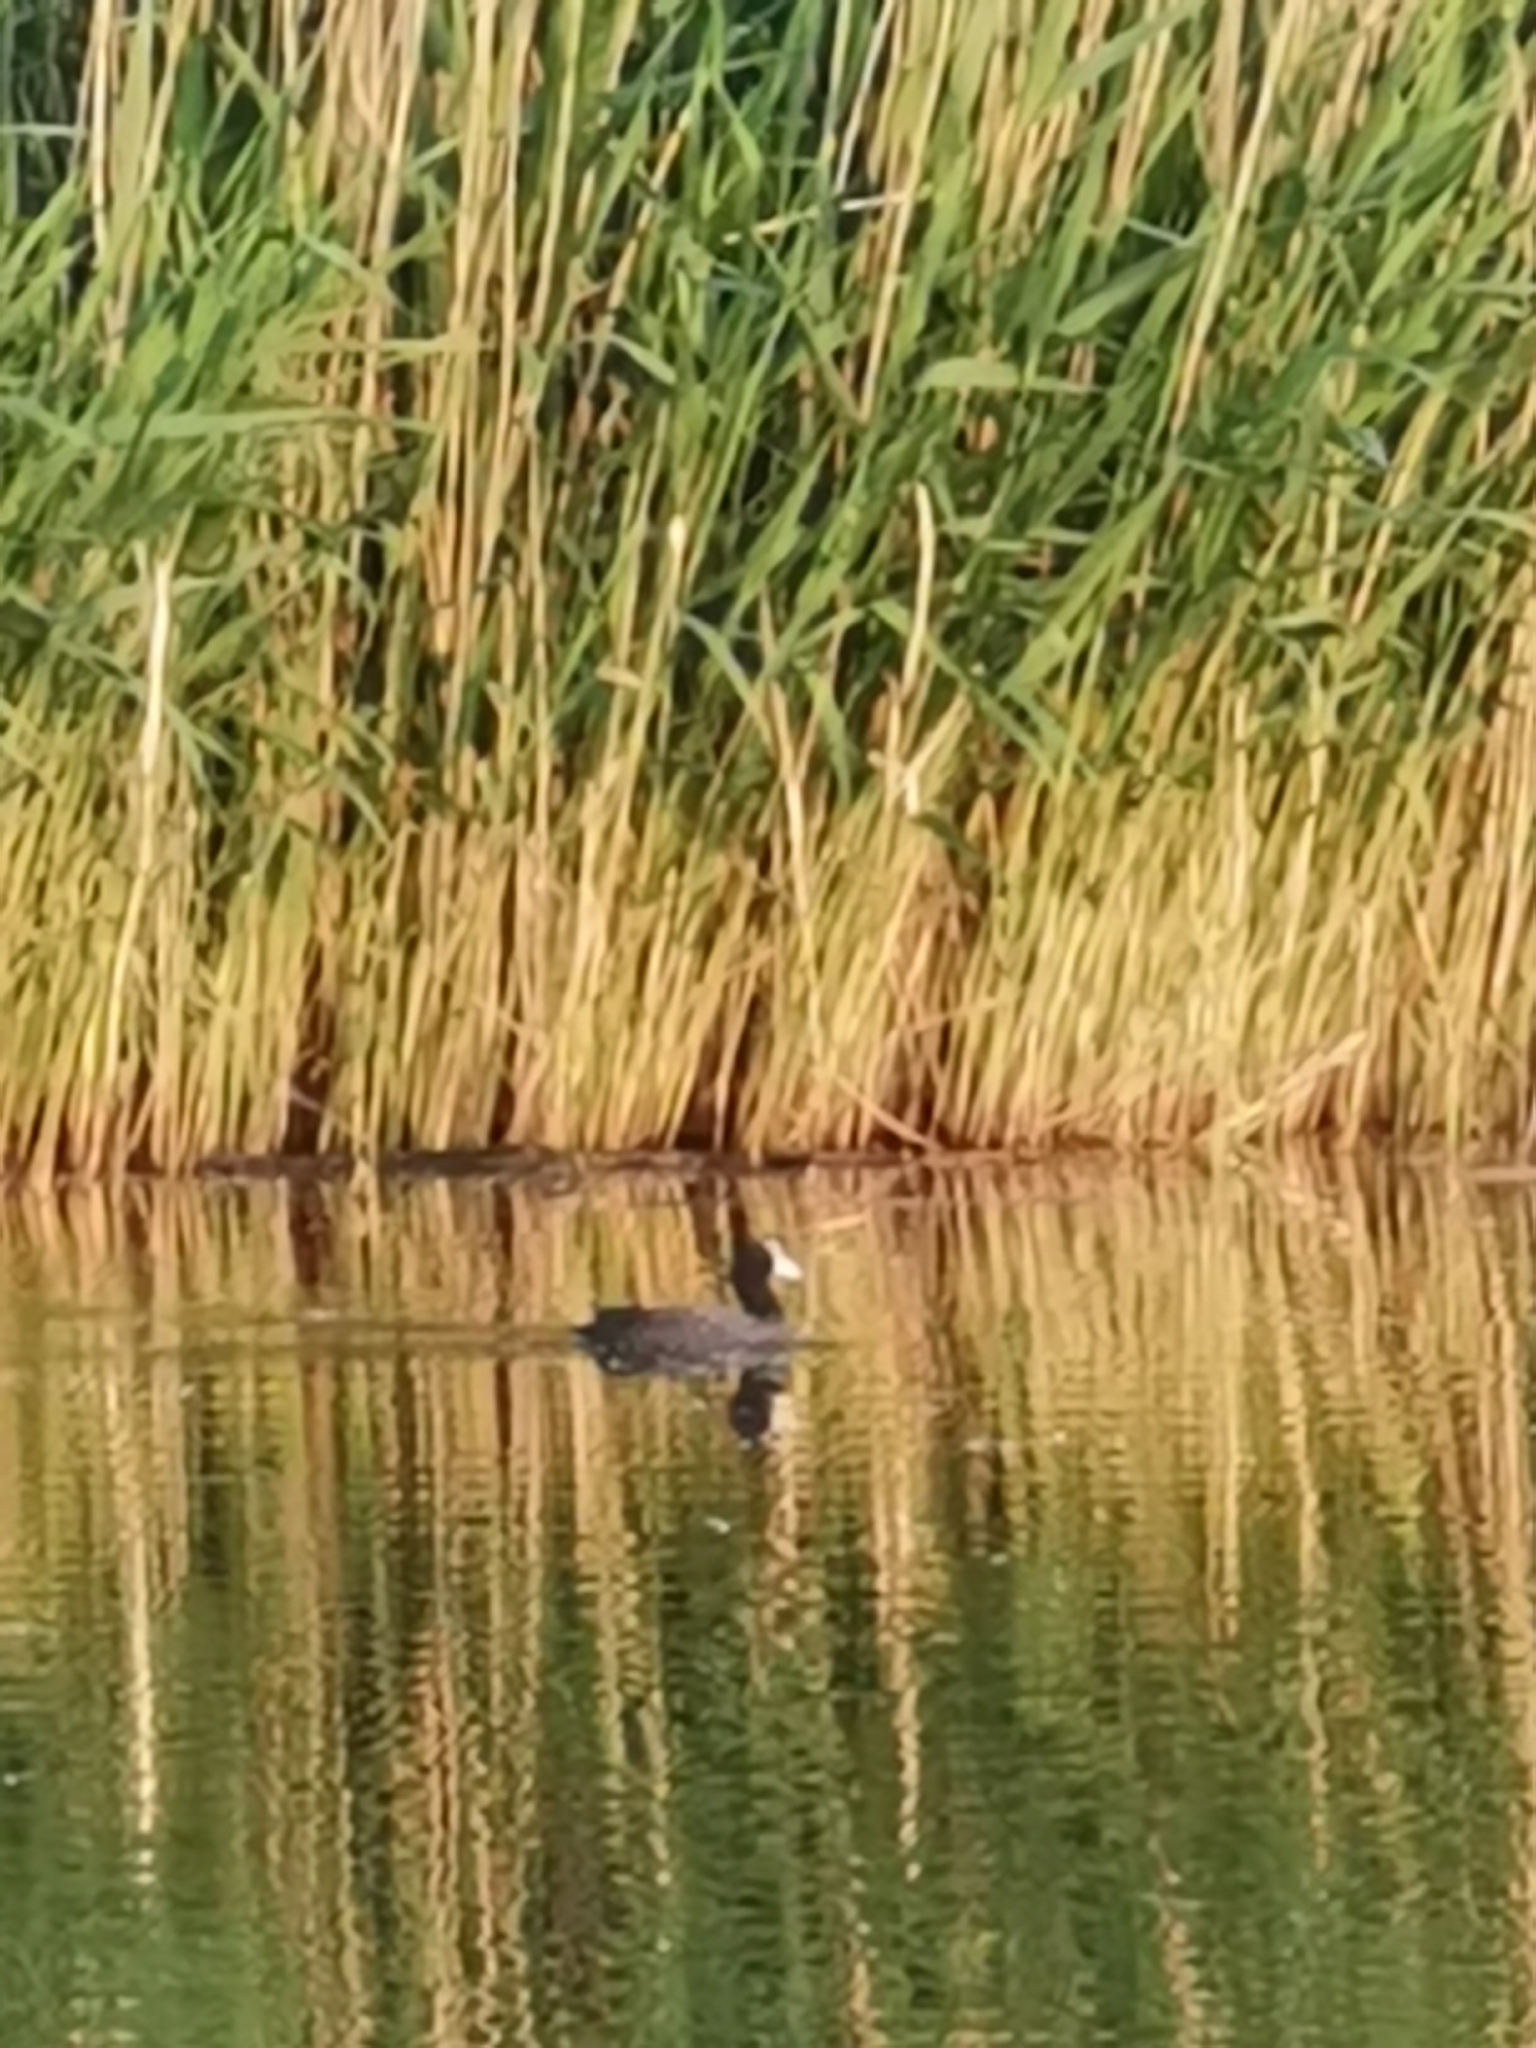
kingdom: Animalia
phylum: Chordata
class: Aves
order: Gruiformes
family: Rallidae
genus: Fulica
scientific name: Fulica atra
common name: Eurasian coot
